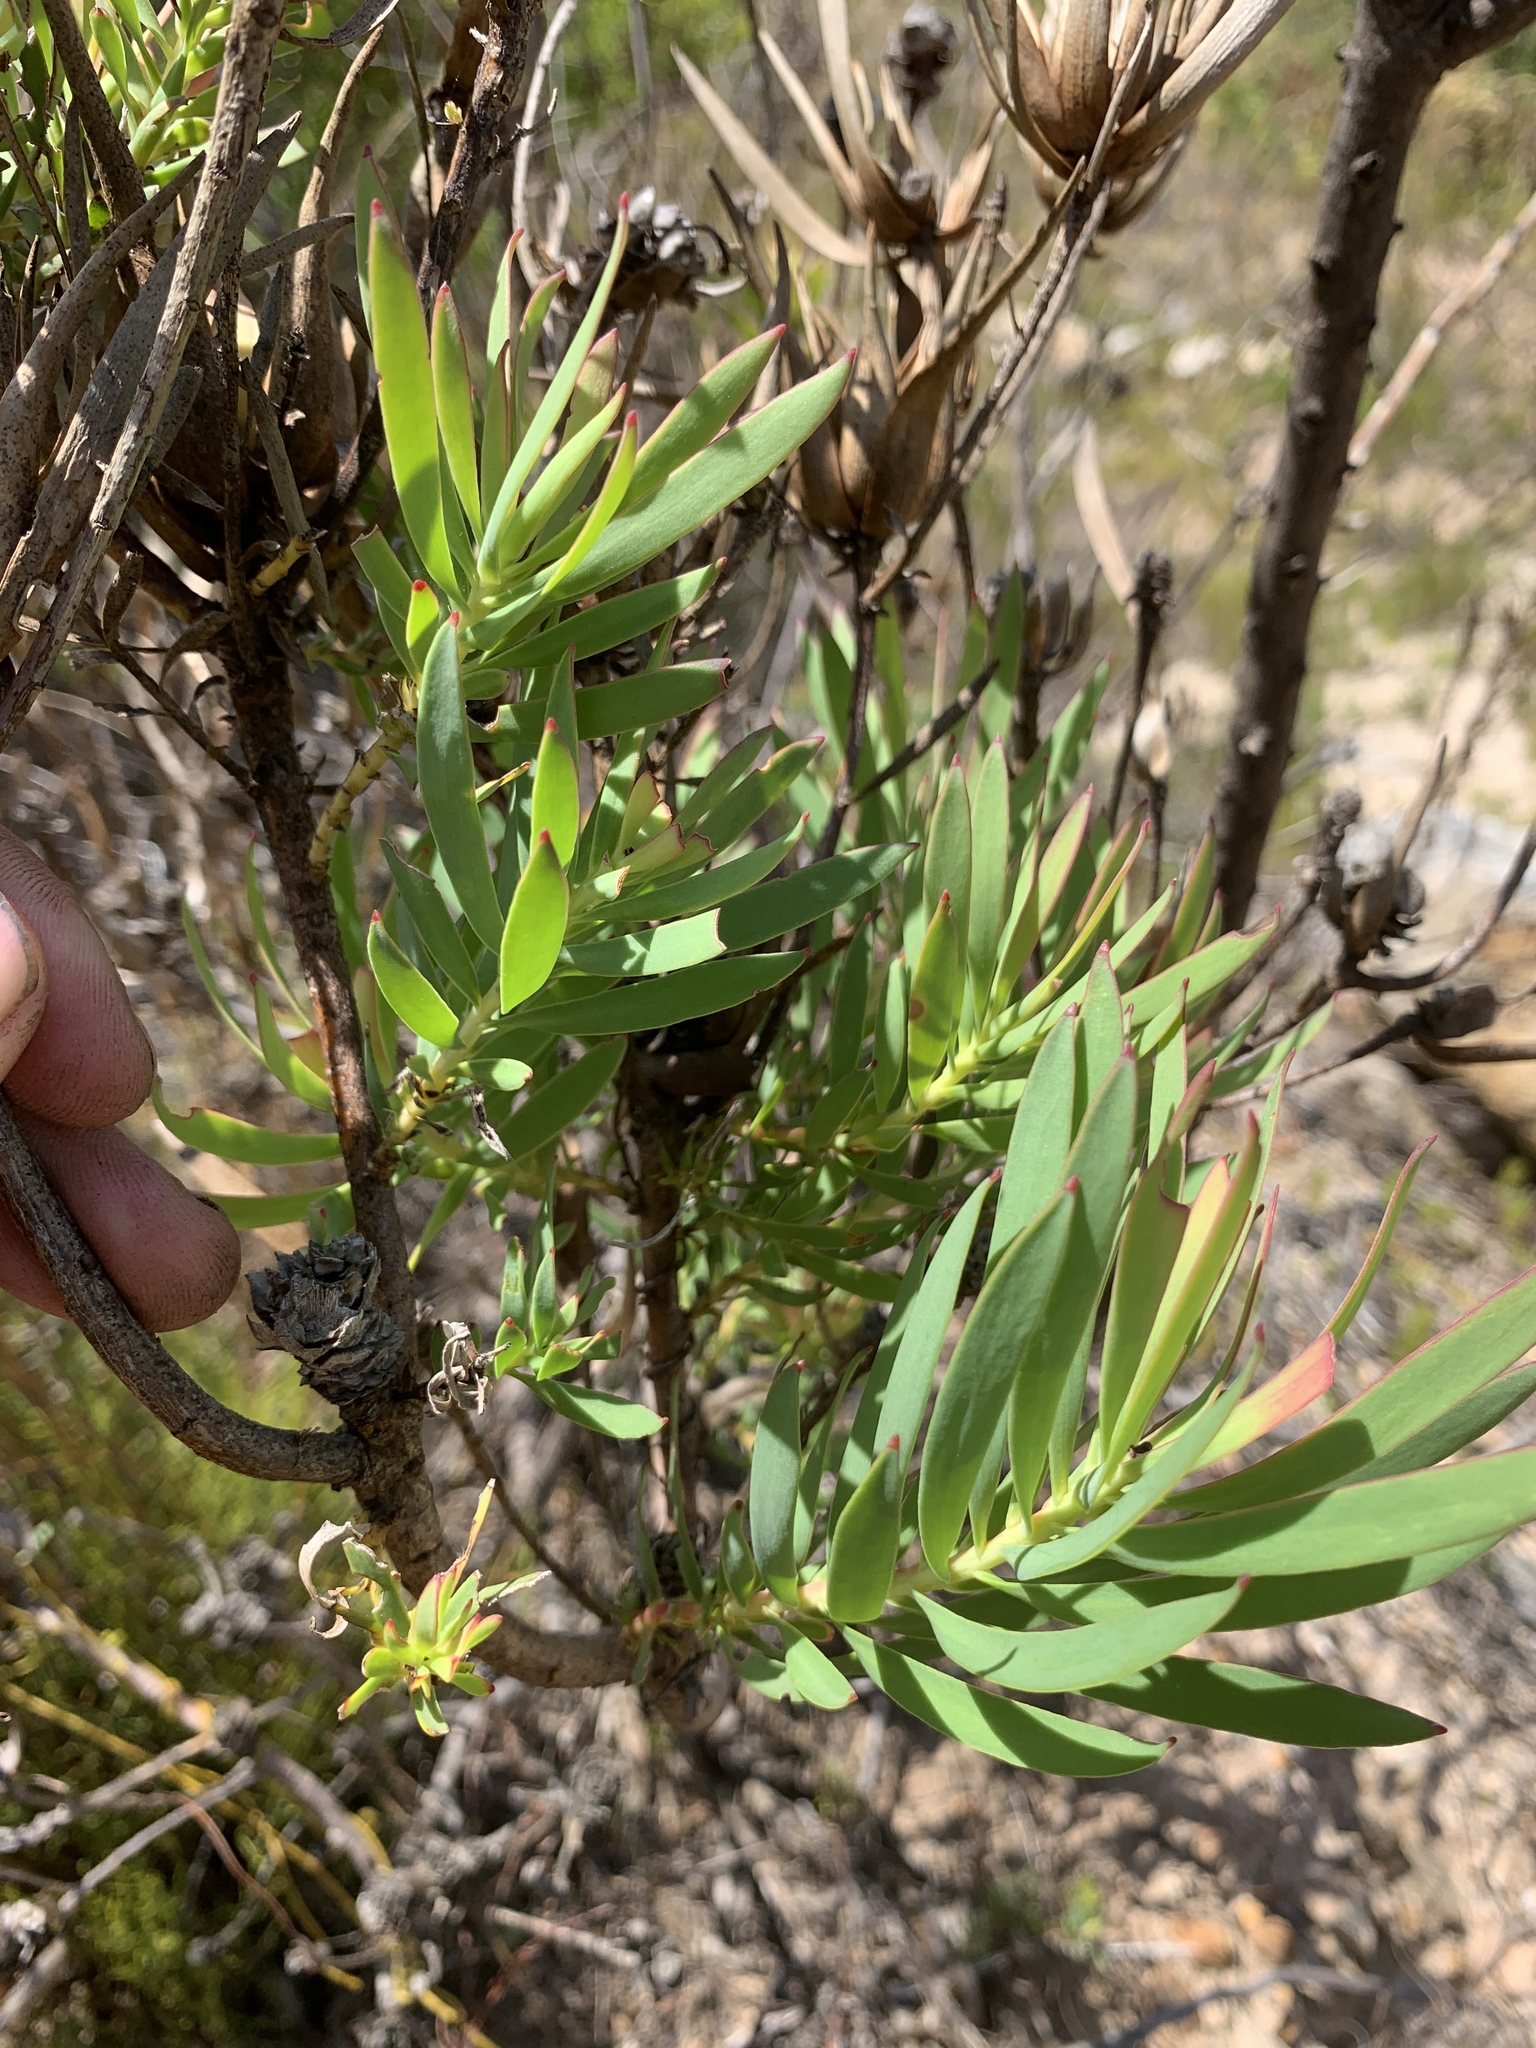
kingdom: Plantae
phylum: Tracheophyta
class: Magnoliopsida
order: Proteales
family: Proteaceae
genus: Leucadendron
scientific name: Leucadendron salignum
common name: Common sunshine conebush
